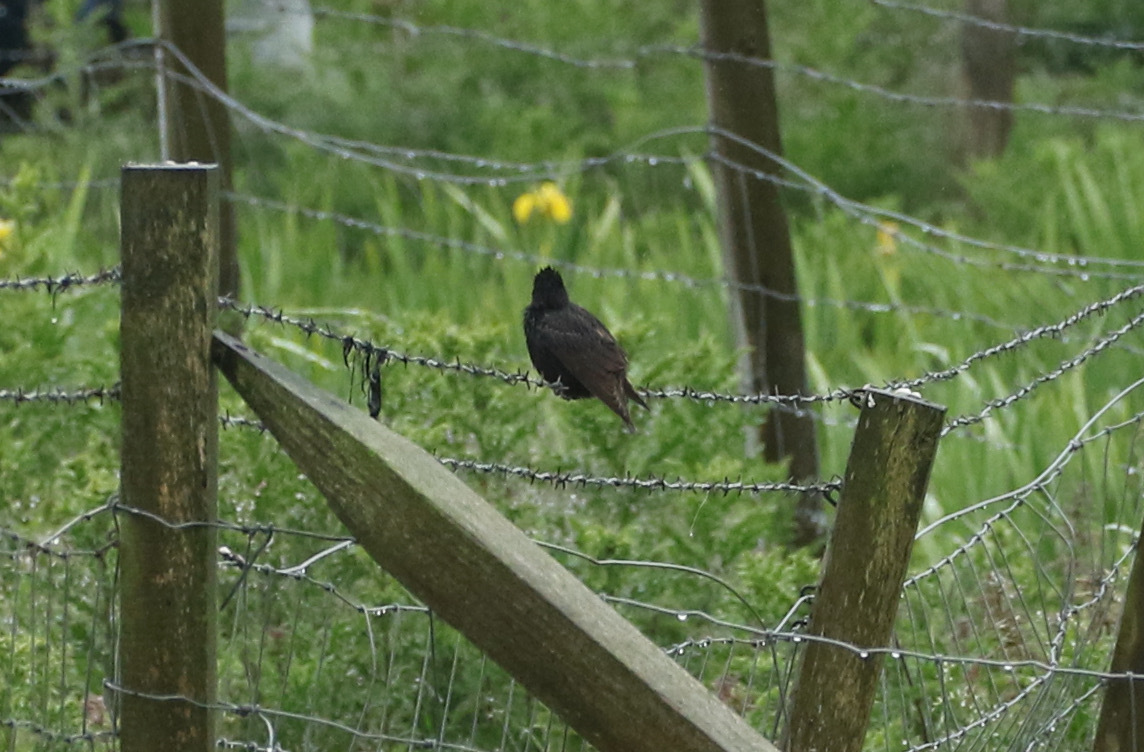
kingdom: Animalia
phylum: Chordata
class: Aves
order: Passeriformes
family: Sturnidae
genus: Sturnus
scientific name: Sturnus vulgaris
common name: Common starling
